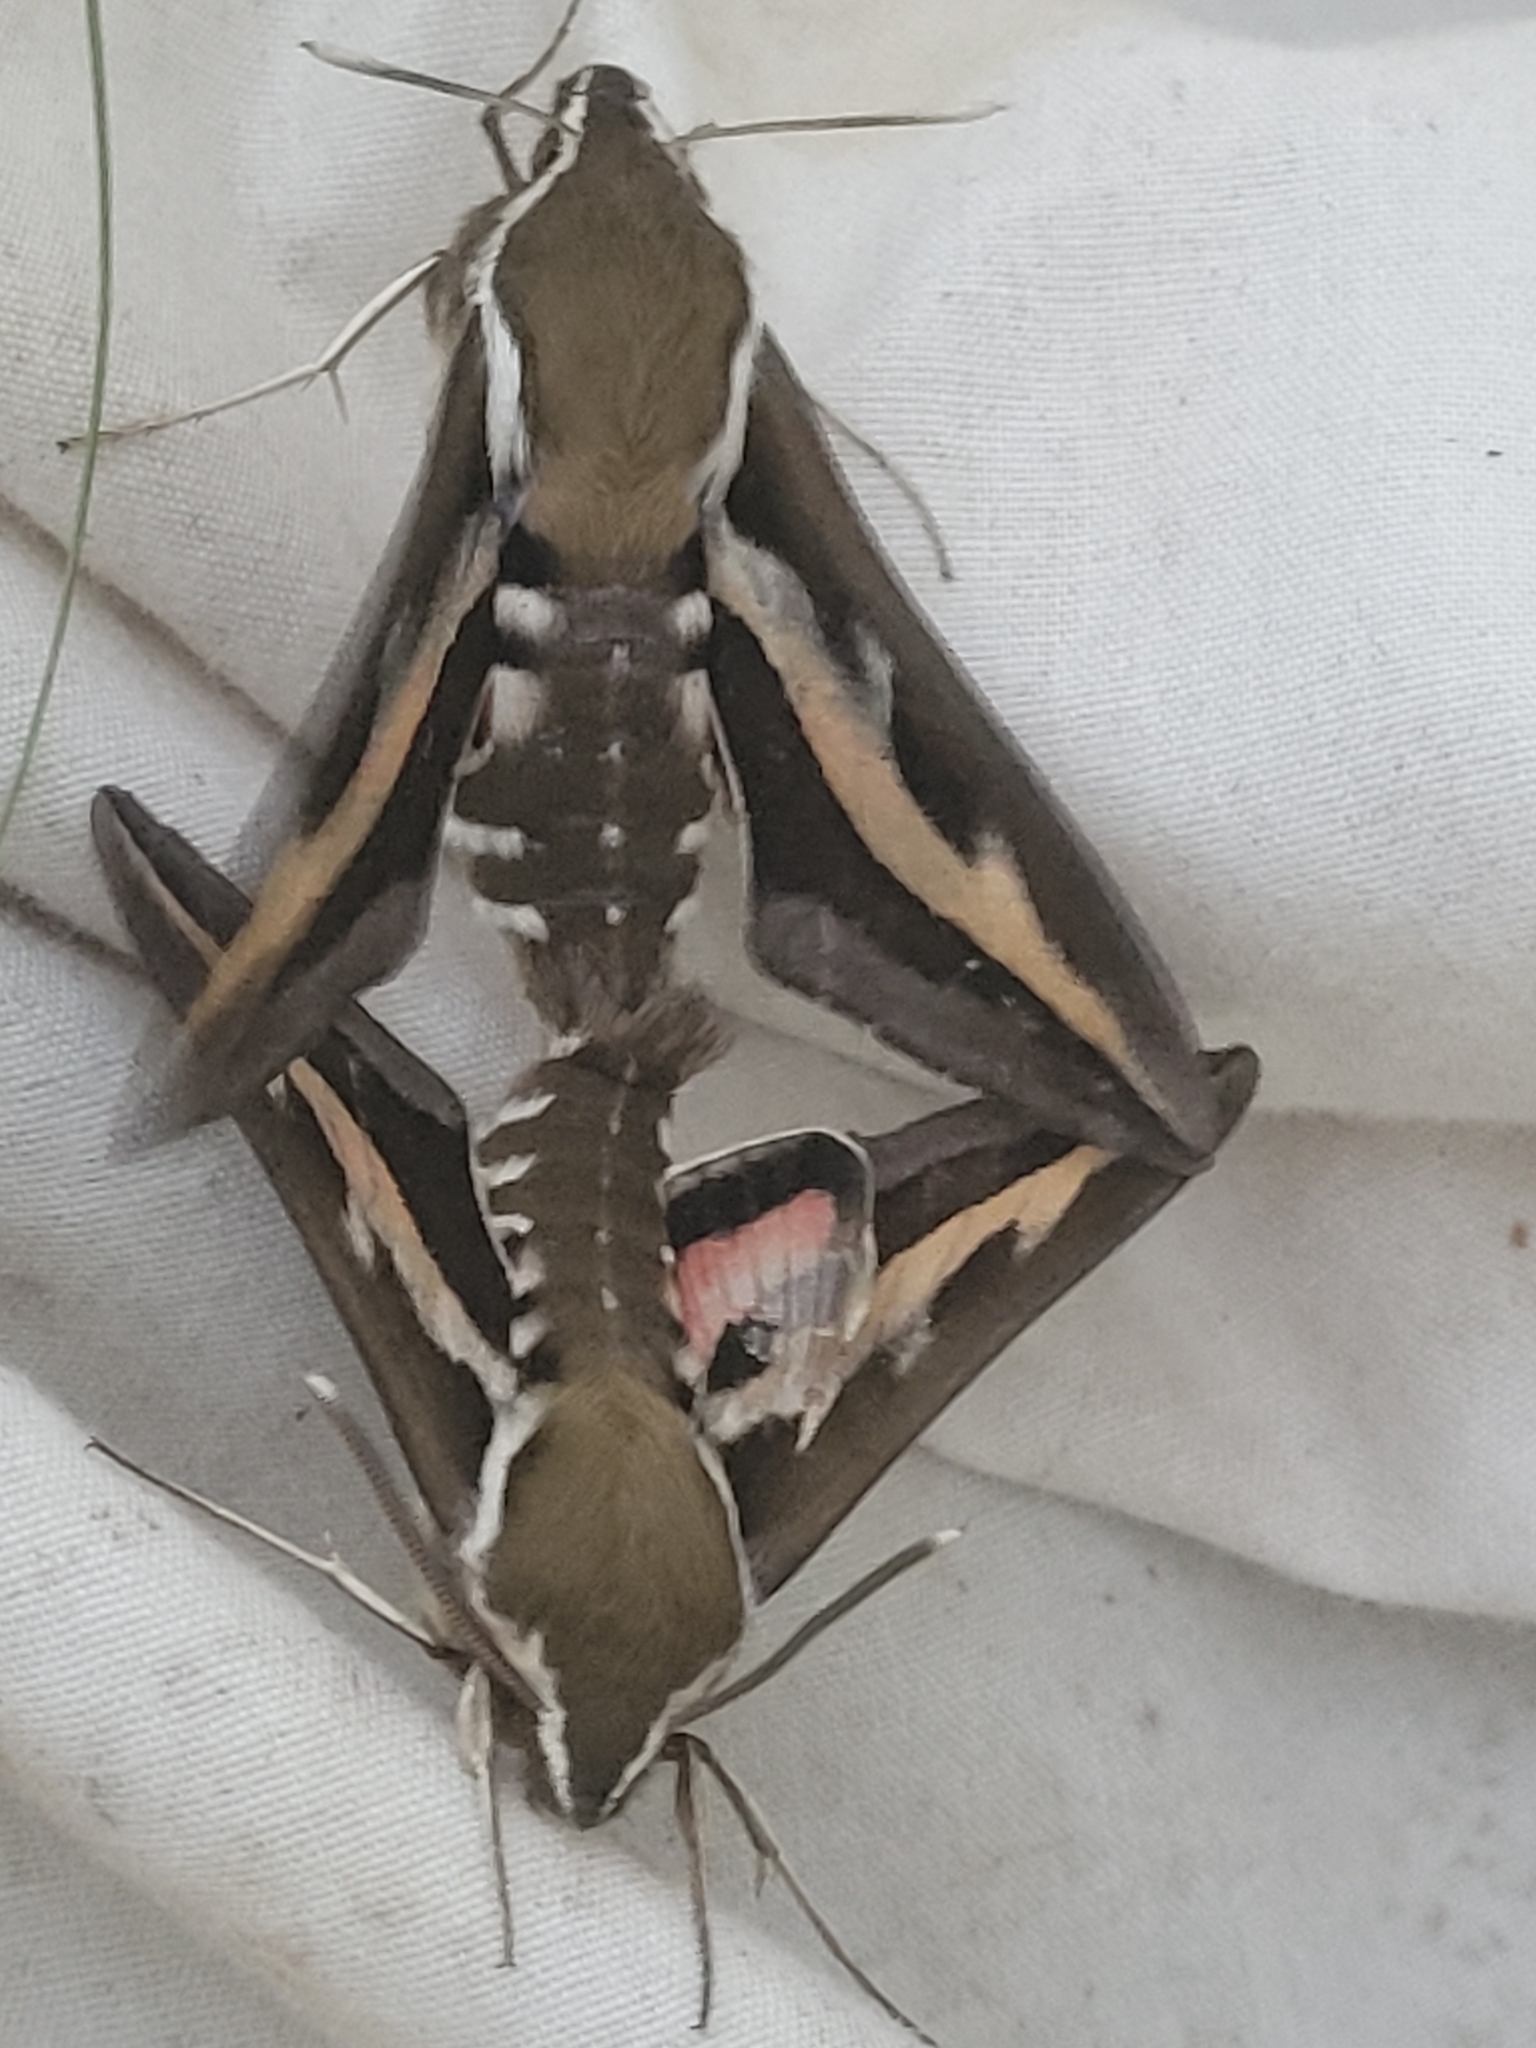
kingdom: Animalia
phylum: Arthropoda
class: Insecta
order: Lepidoptera
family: Sphingidae
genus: Hyles
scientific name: Hyles gallii
